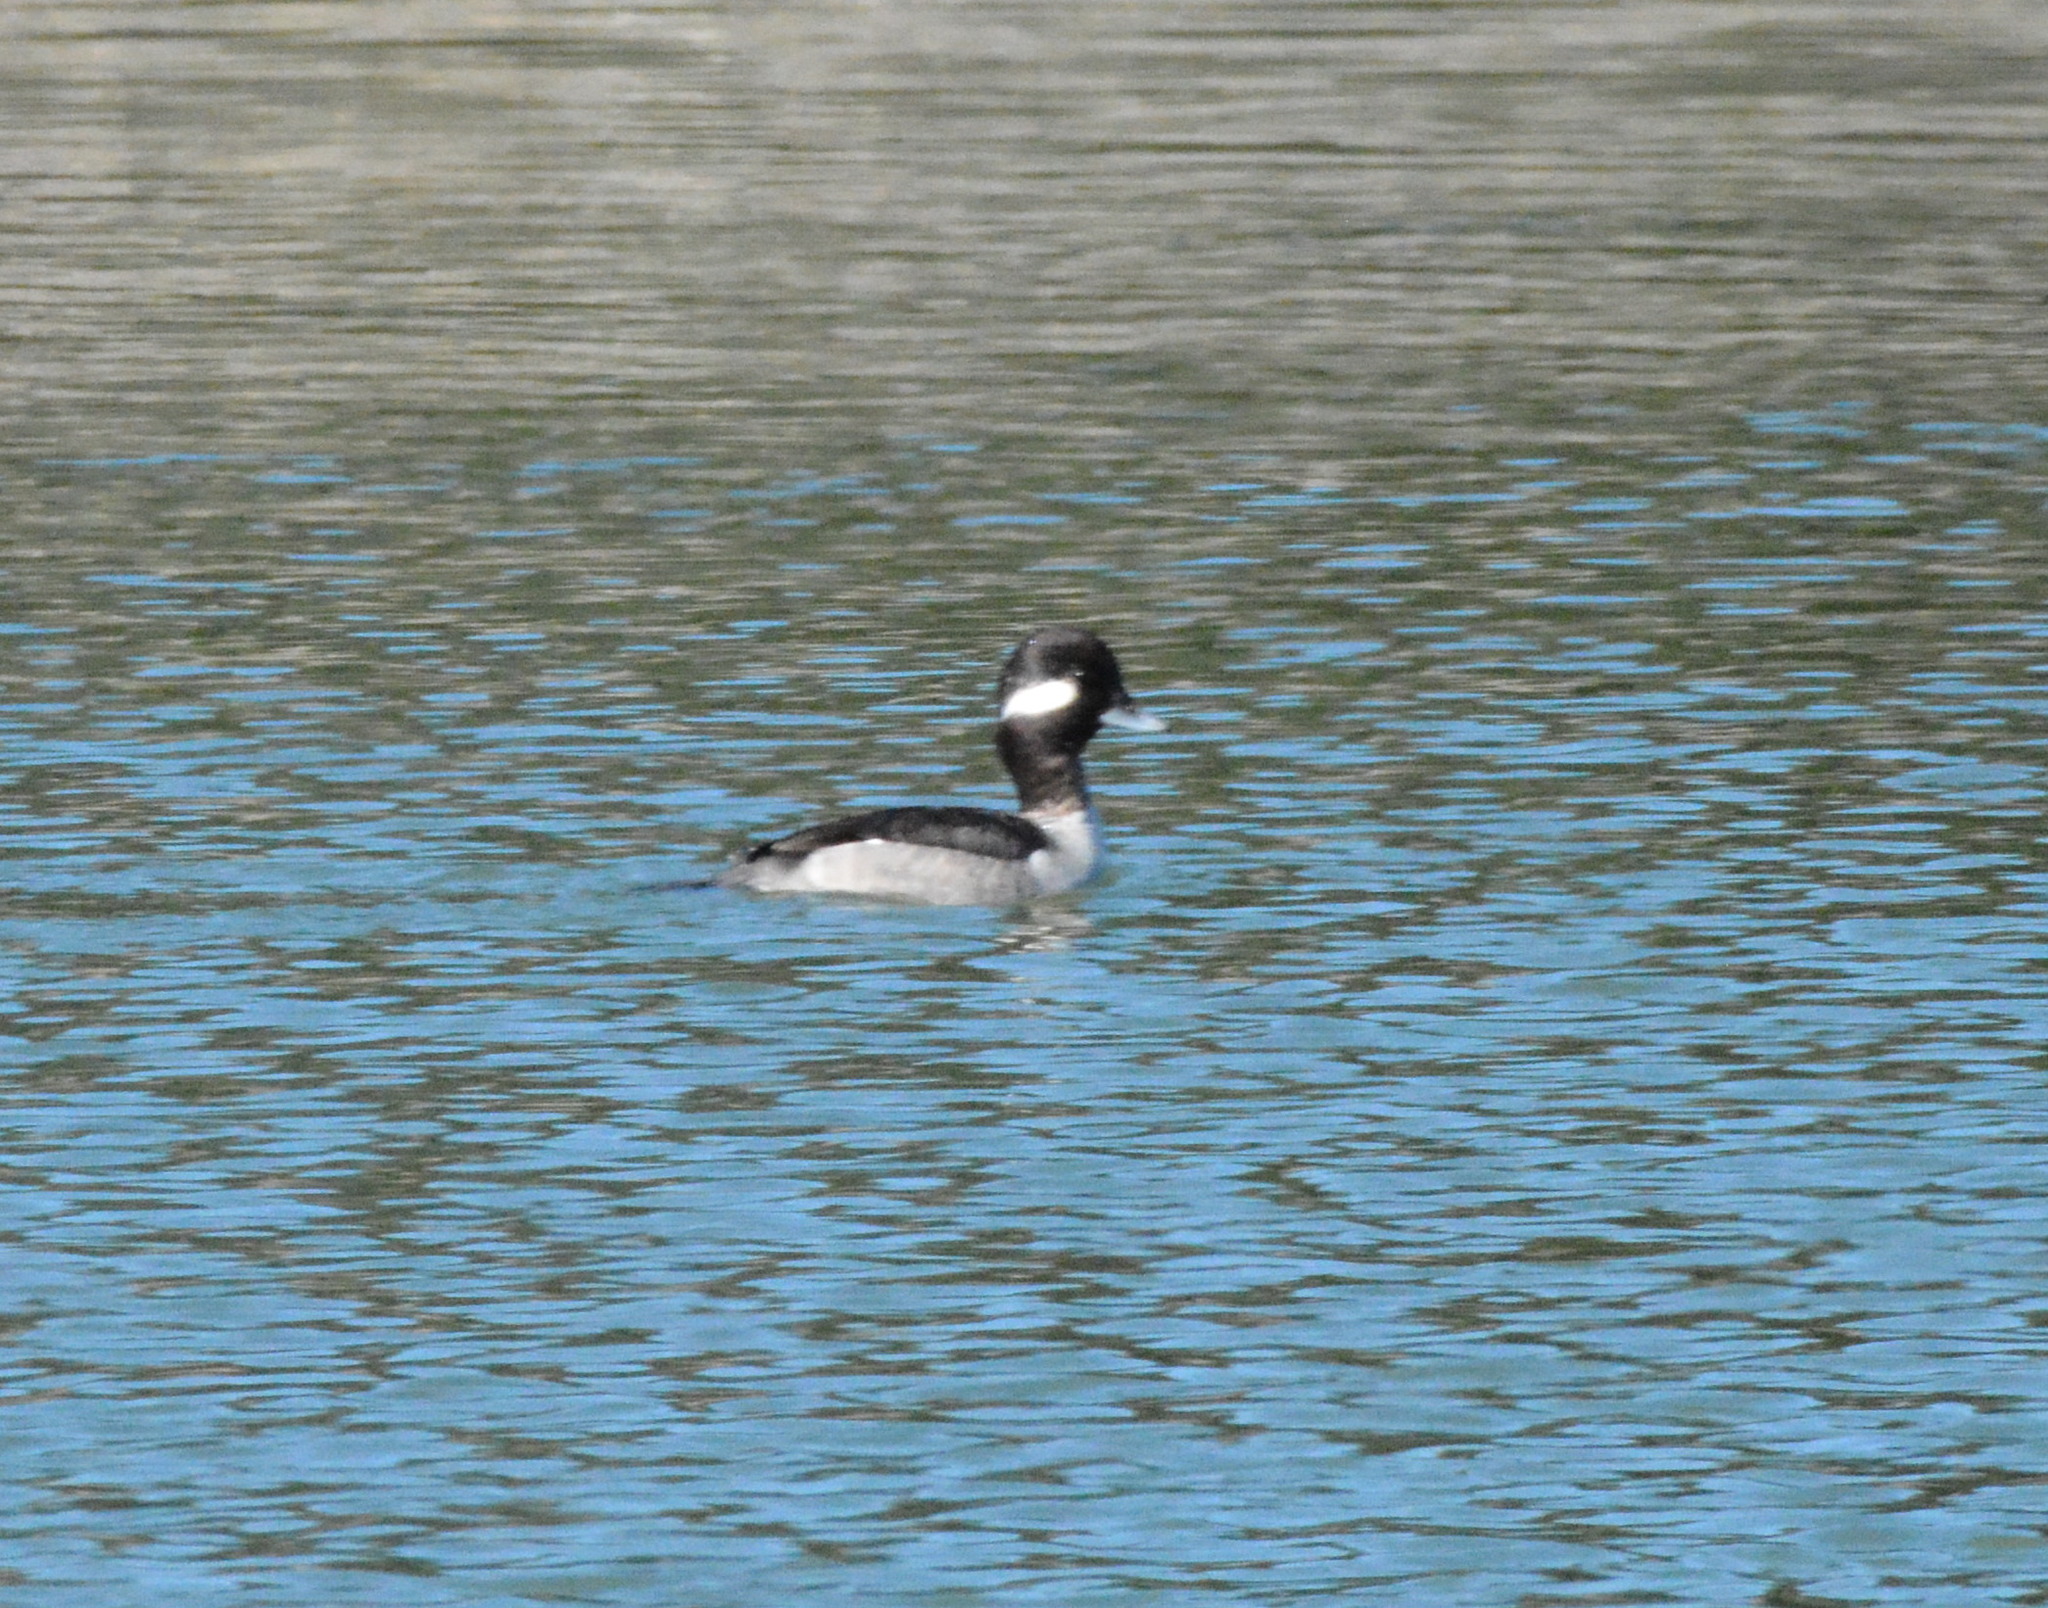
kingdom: Animalia
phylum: Chordata
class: Aves
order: Anseriformes
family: Anatidae
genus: Bucephala
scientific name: Bucephala albeola
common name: Bufflehead
